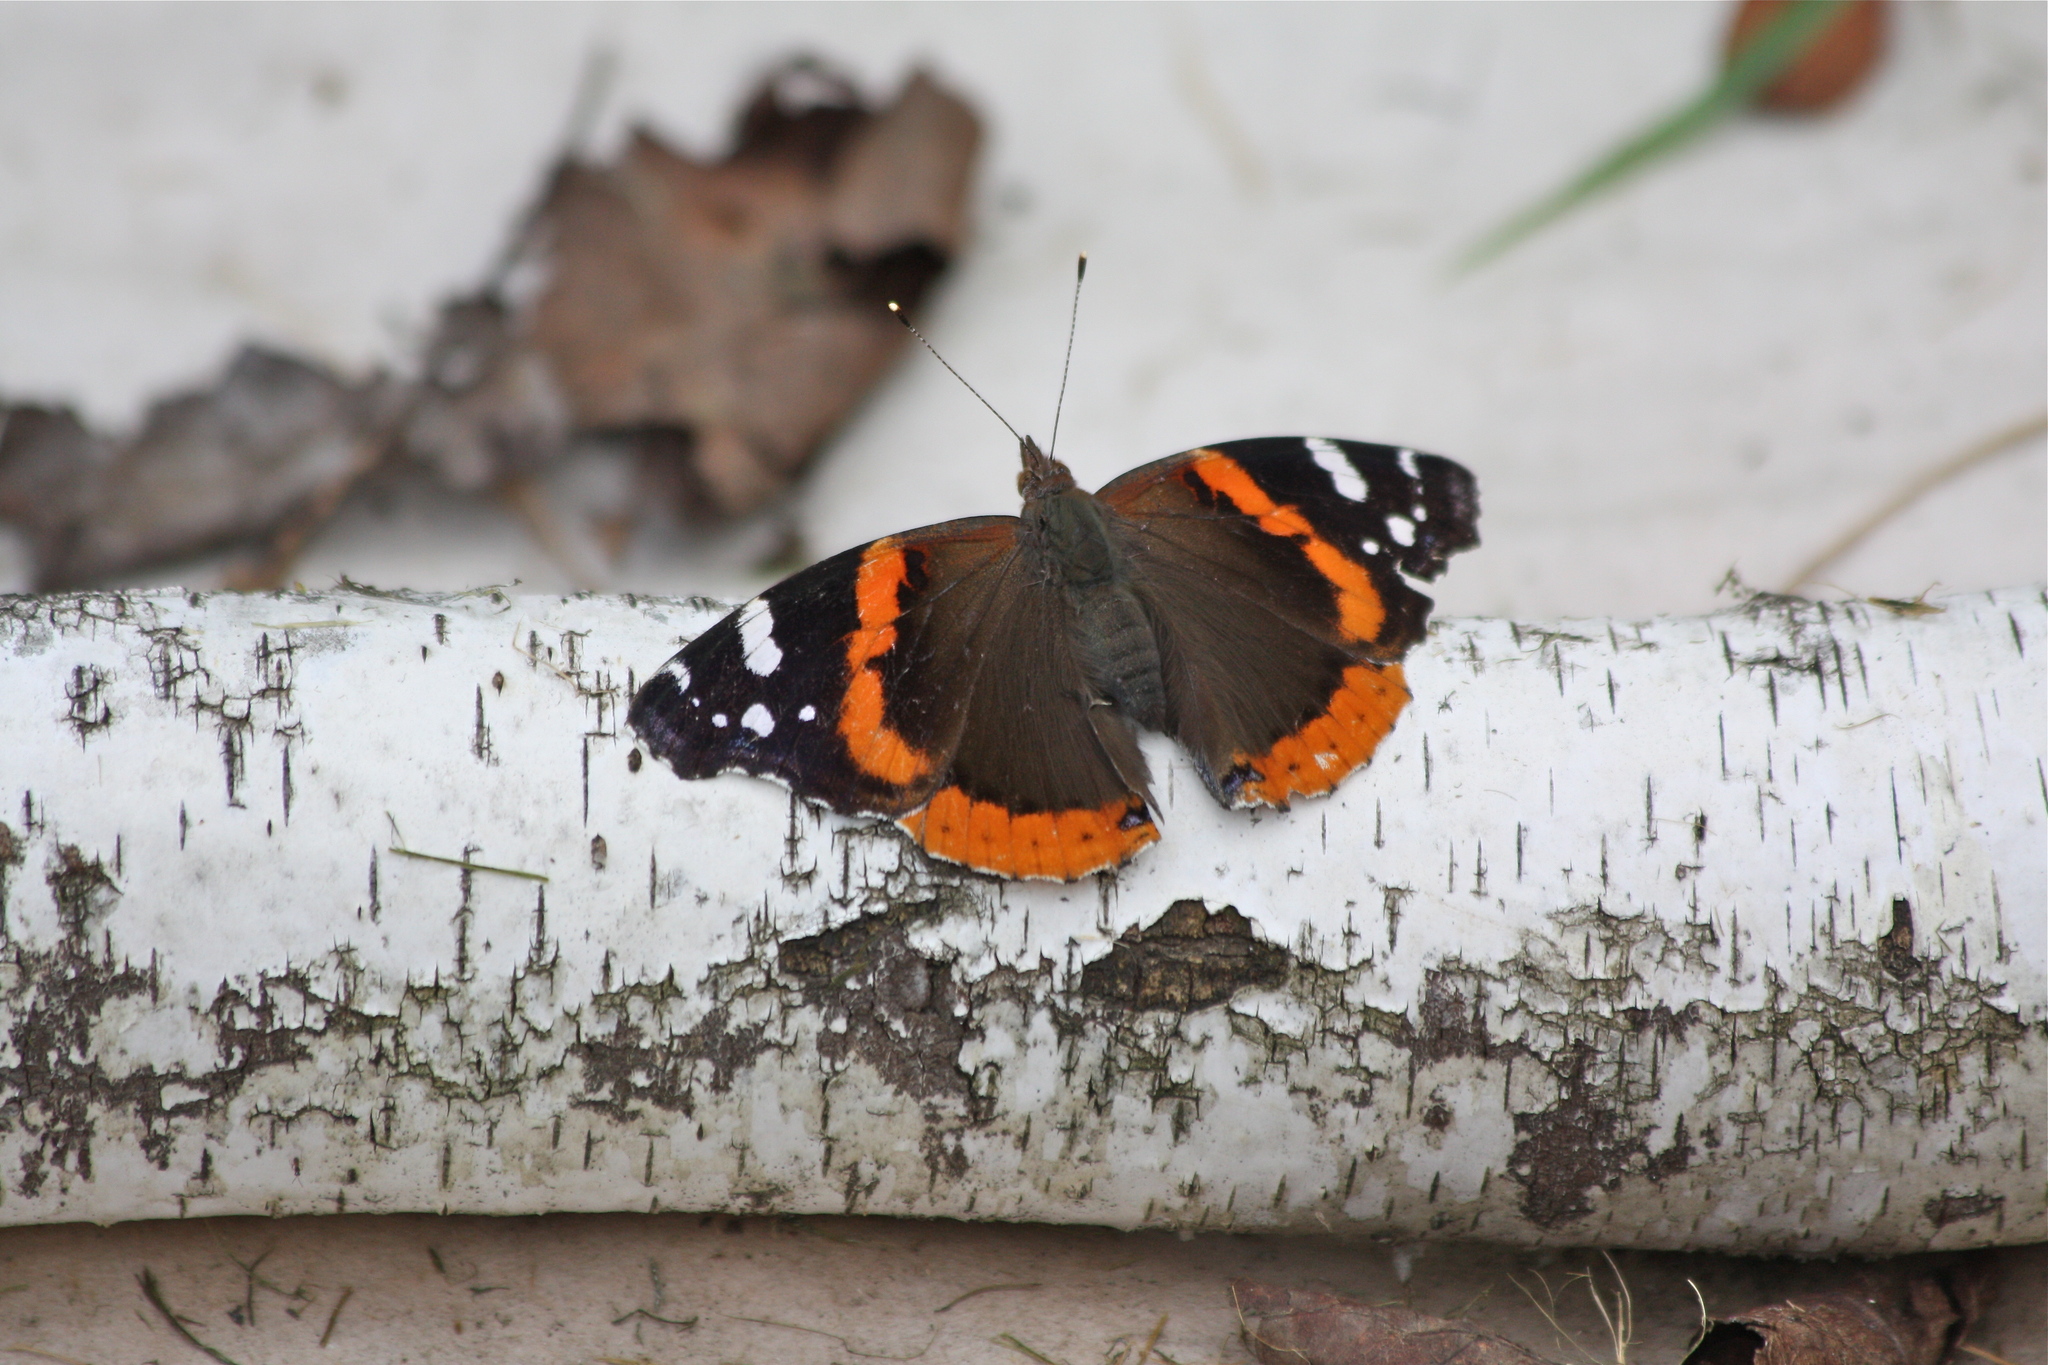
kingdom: Animalia
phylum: Arthropoda
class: Insecta
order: Lepidoptera
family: Nymphalidae
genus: Vanessa
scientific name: Vanessa atalanta
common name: Red admiral
